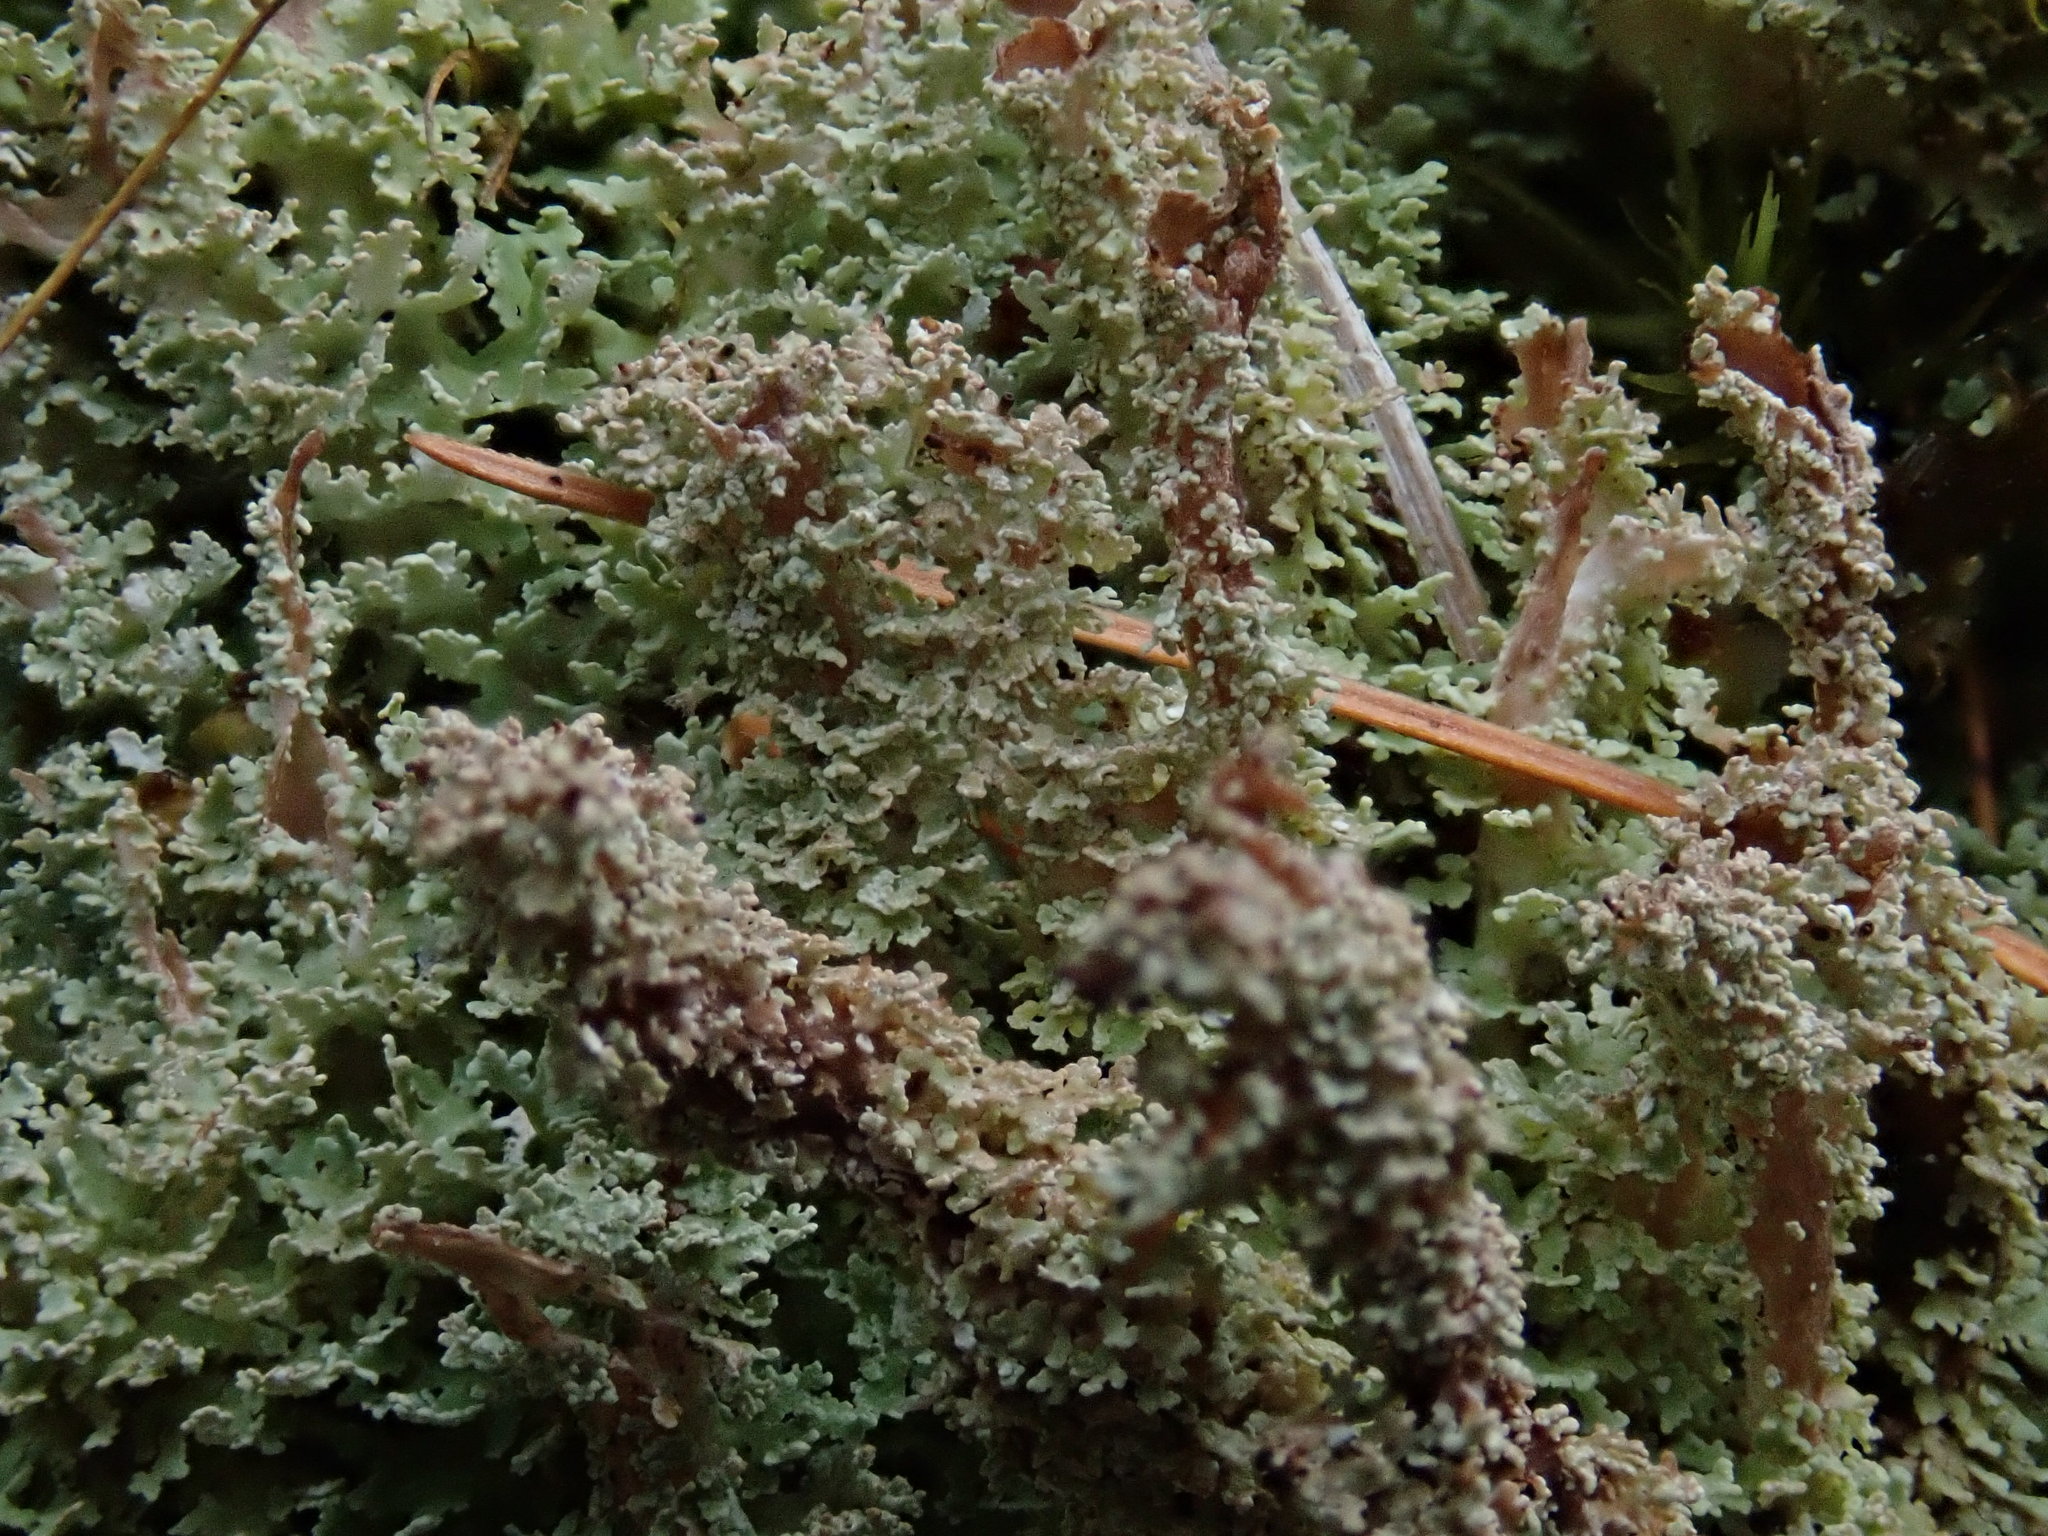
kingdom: Fungi
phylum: Ascomycota
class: Lecanoromycetes
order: Lecanorales
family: Cladoniaceae
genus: Cladonia
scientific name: Cladonia squamosa
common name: Dragon horn
